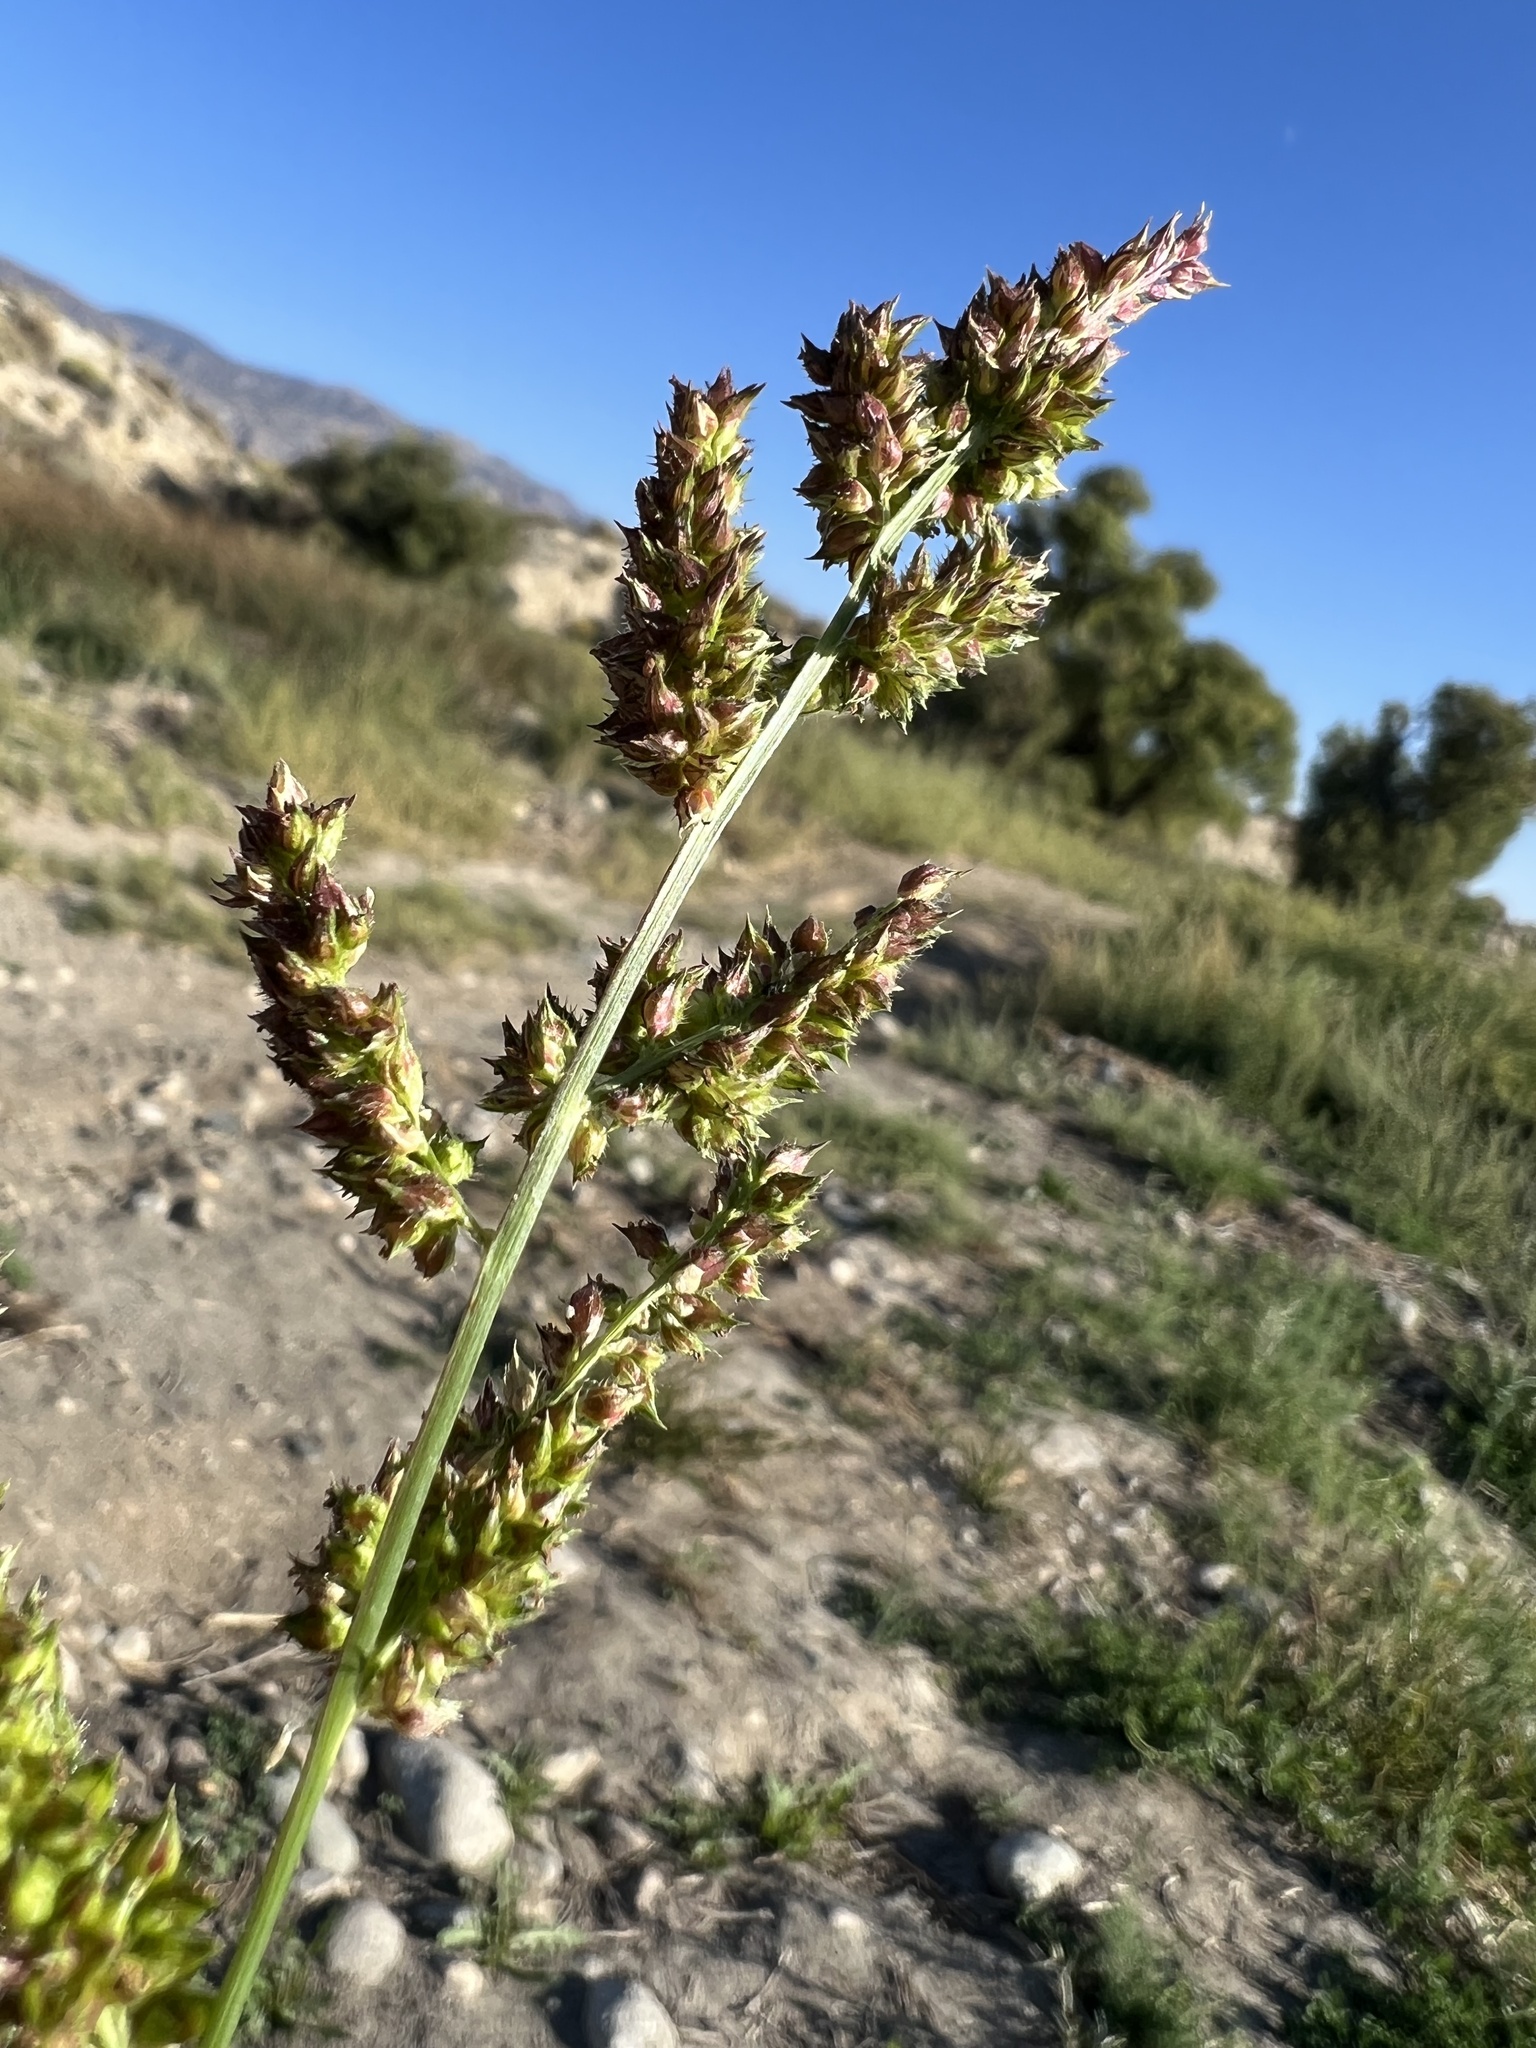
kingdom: Plantae
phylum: Tracheophyta
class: Liliopsida
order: Poales
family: Poaceae
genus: Echinochloa
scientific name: Echinochloa crus-galli
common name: Cockspur
